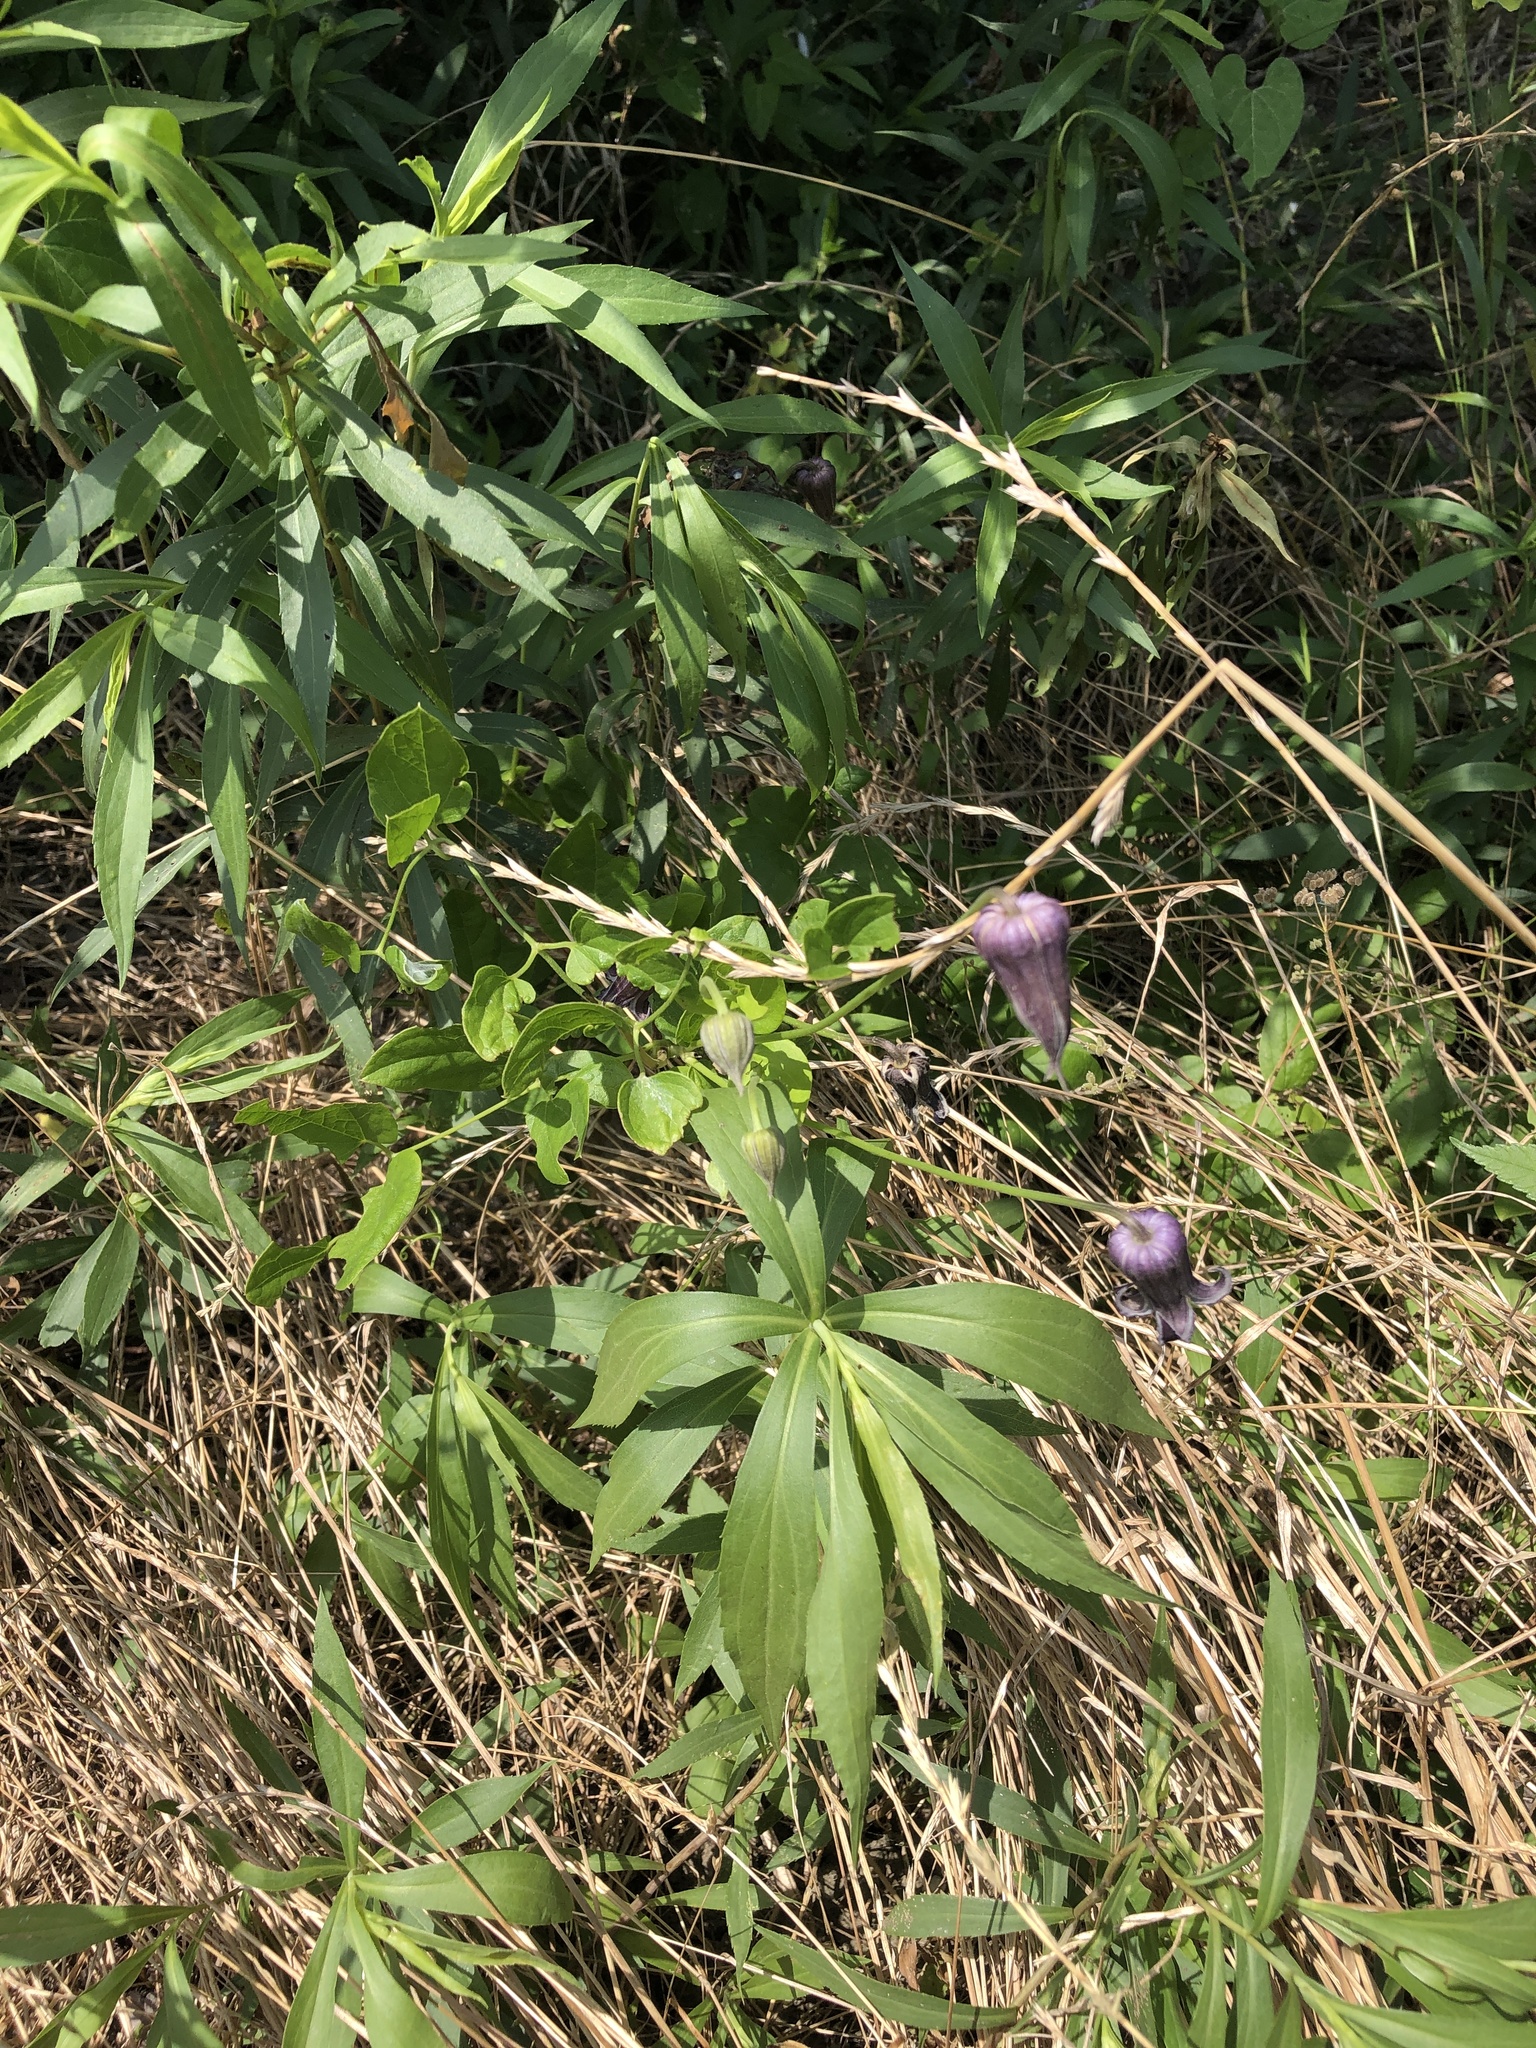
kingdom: Plantae
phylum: Tracheophyta
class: Magnoliopsida
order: Ranunculales
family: Ranunculaceae
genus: Clematis
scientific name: Clematis pitcheri
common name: Bellflower clematis
